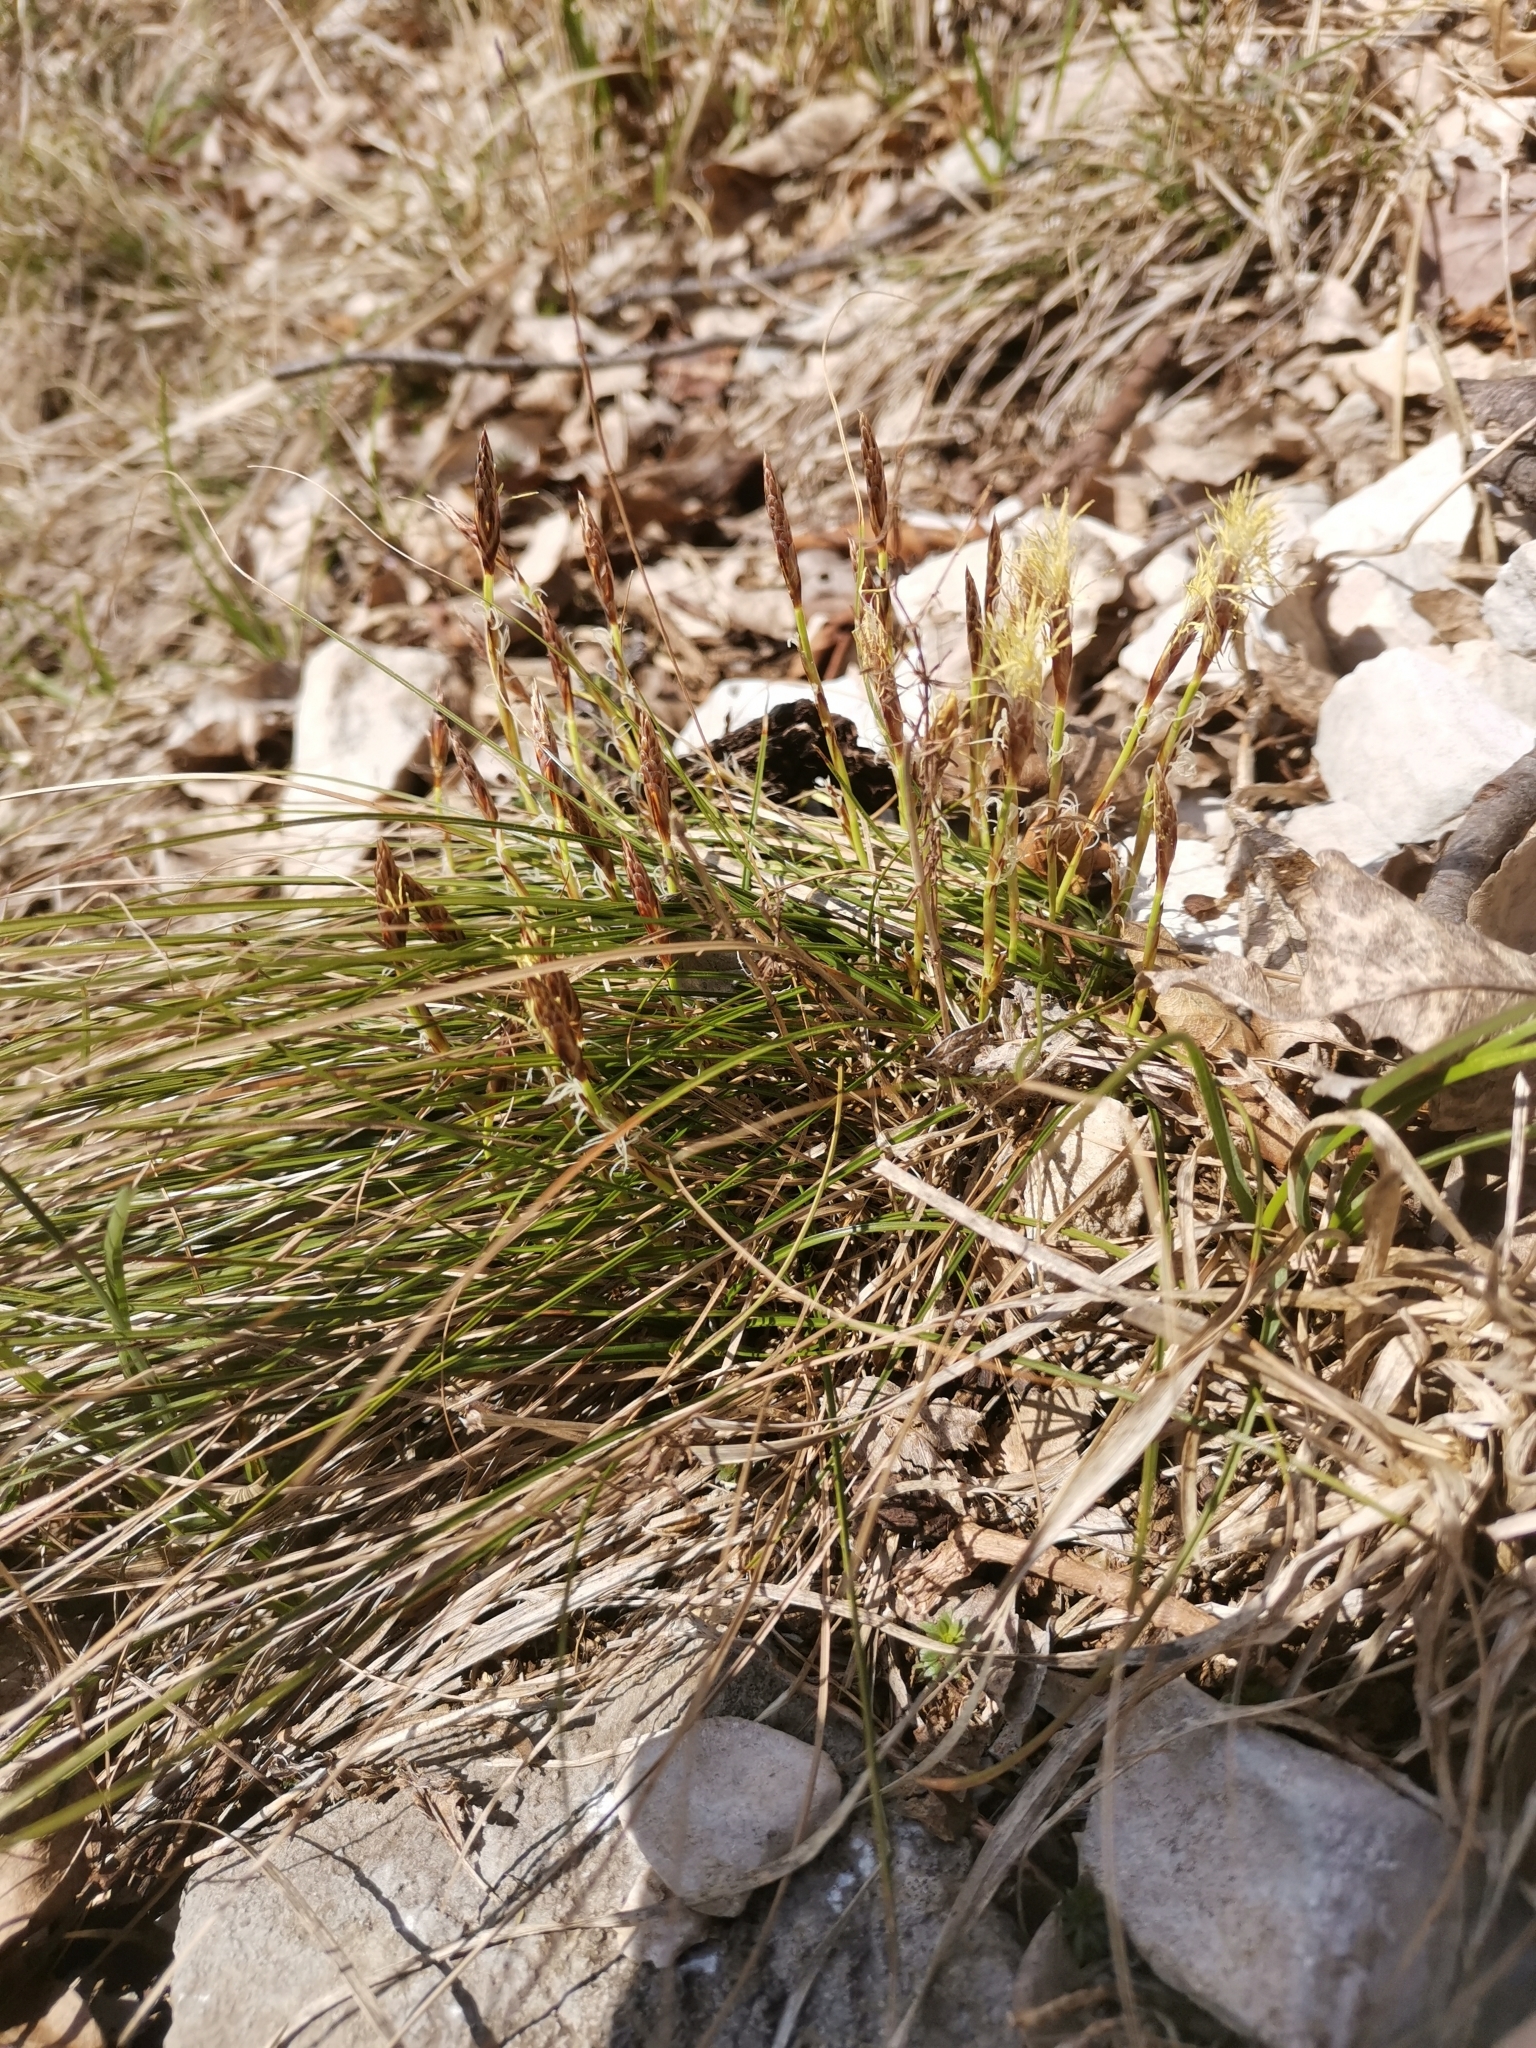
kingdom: Plantae
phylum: Tracheophyta
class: Liliopsida
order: Poales
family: Cyperaceae
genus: Carex
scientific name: Carex humilis
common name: Dwarf sedge
